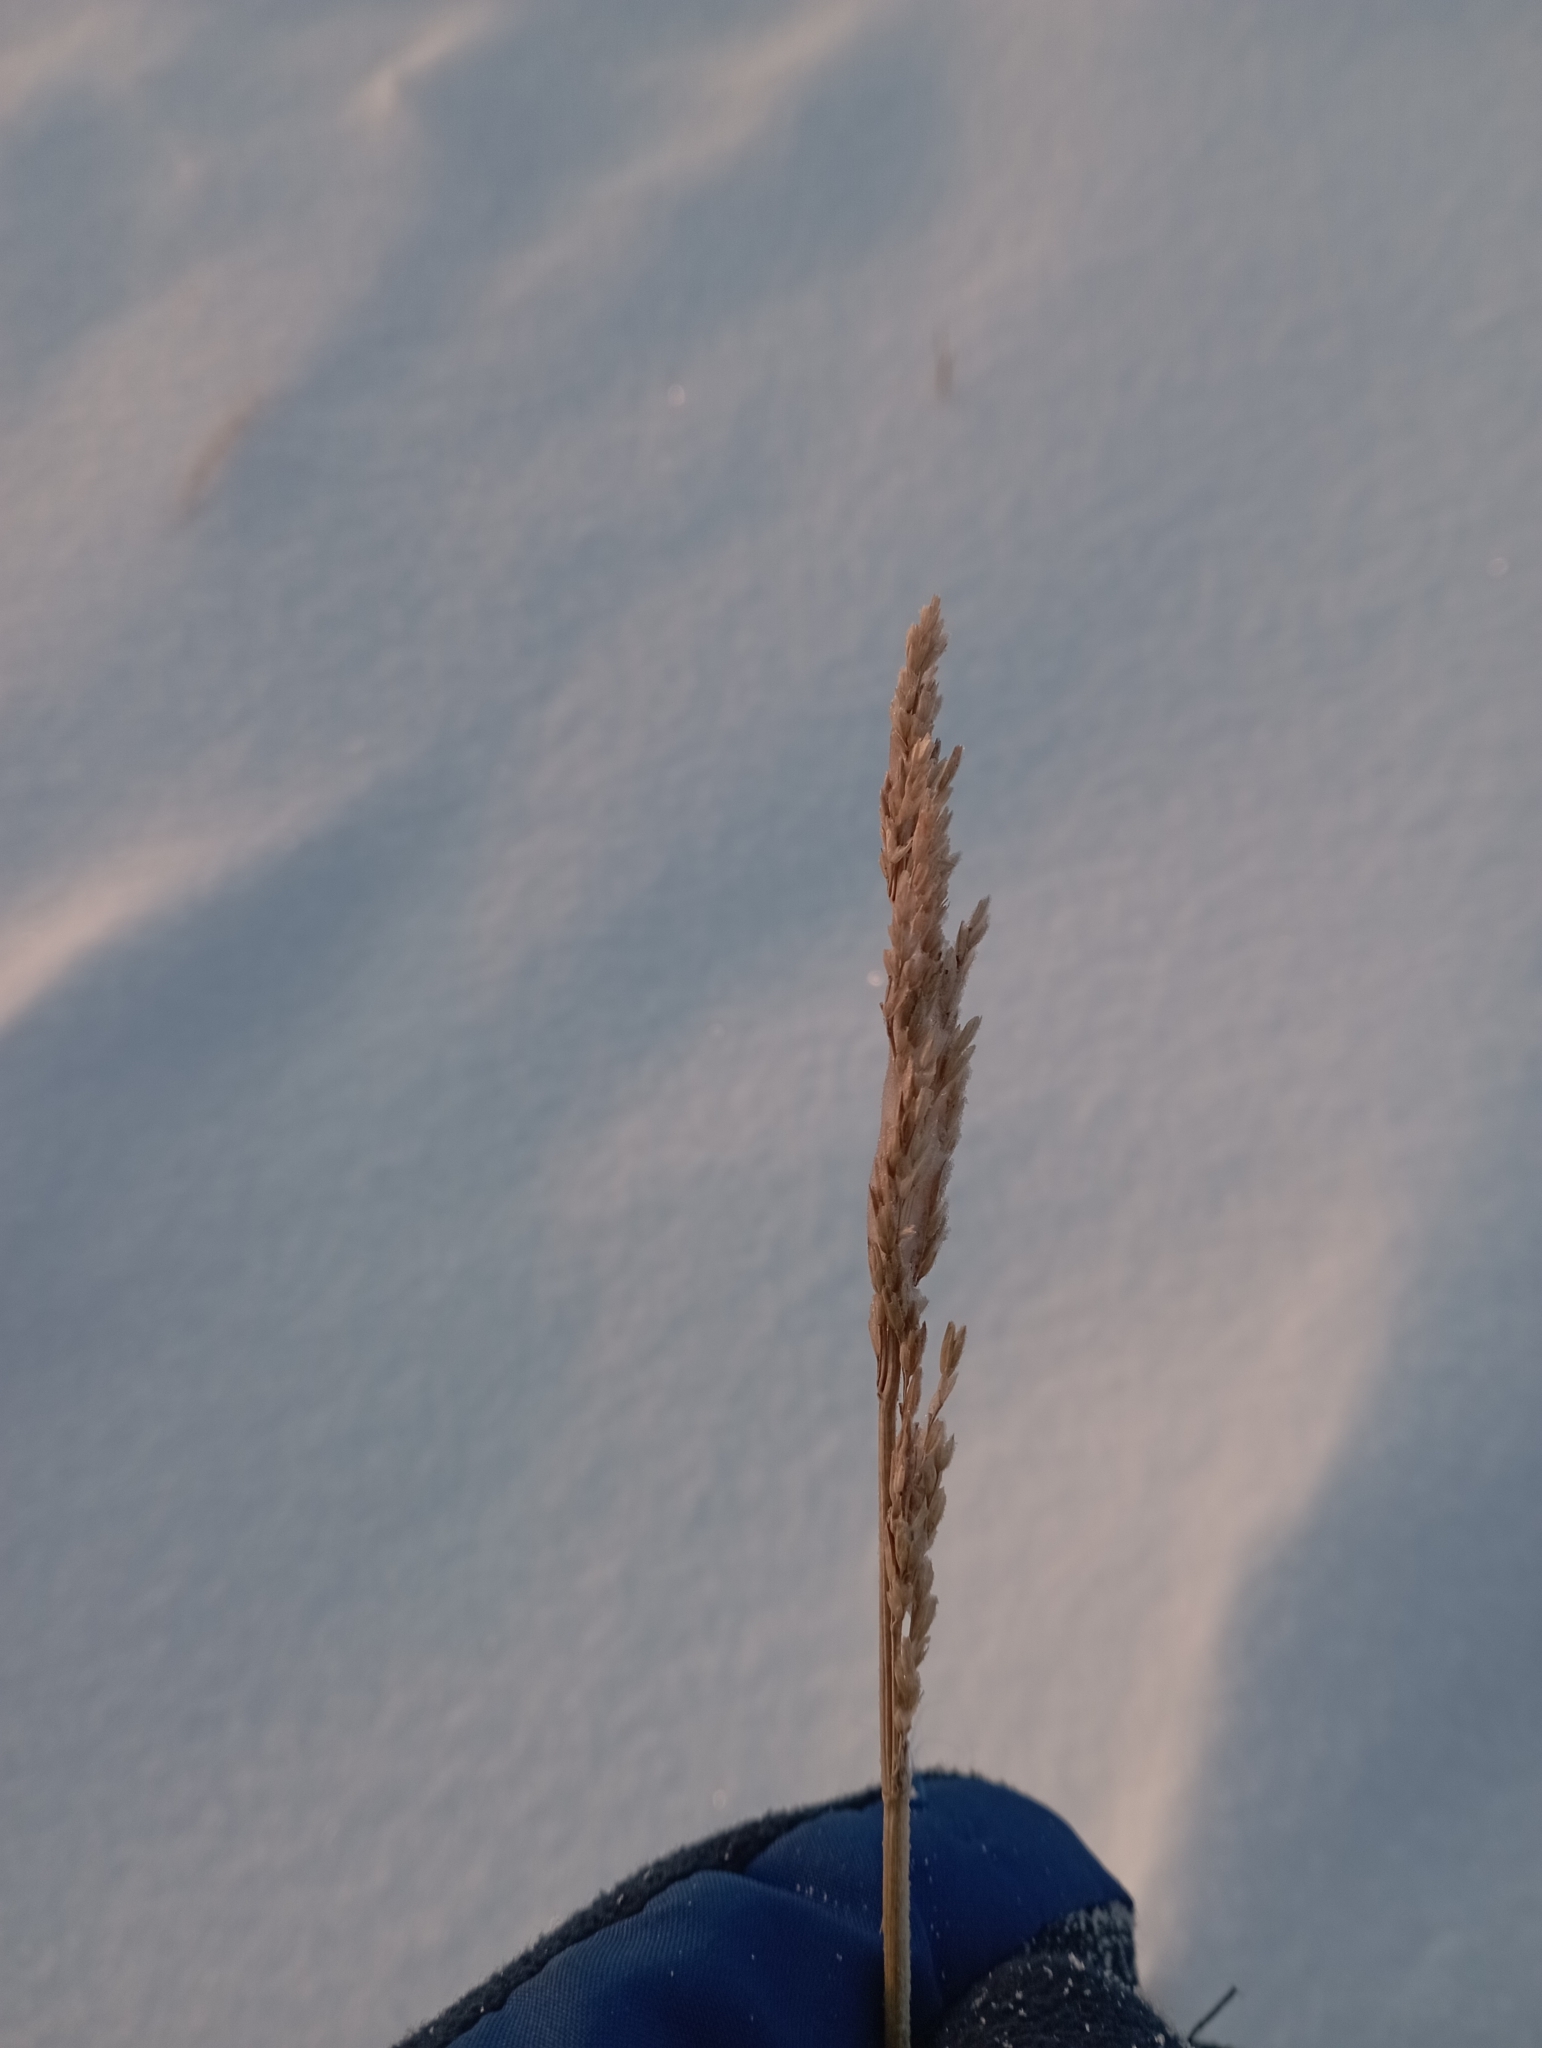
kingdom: Plantae
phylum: Tracheophyta
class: Liliopsida
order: Poales
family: Poaceae
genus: Arctagrostis
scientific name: Arctagrostis latifolia
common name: Arctic grass
